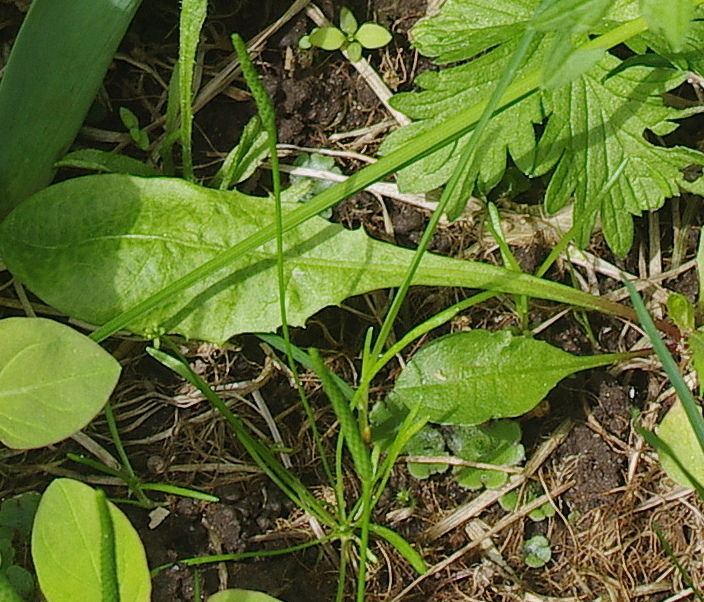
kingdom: Plantae
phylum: Tracheophyta
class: Magnoliopsida
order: Ranunculales
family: Ranunculaceae
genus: Myosurus
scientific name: Myosurus minimus
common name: Mousetail
